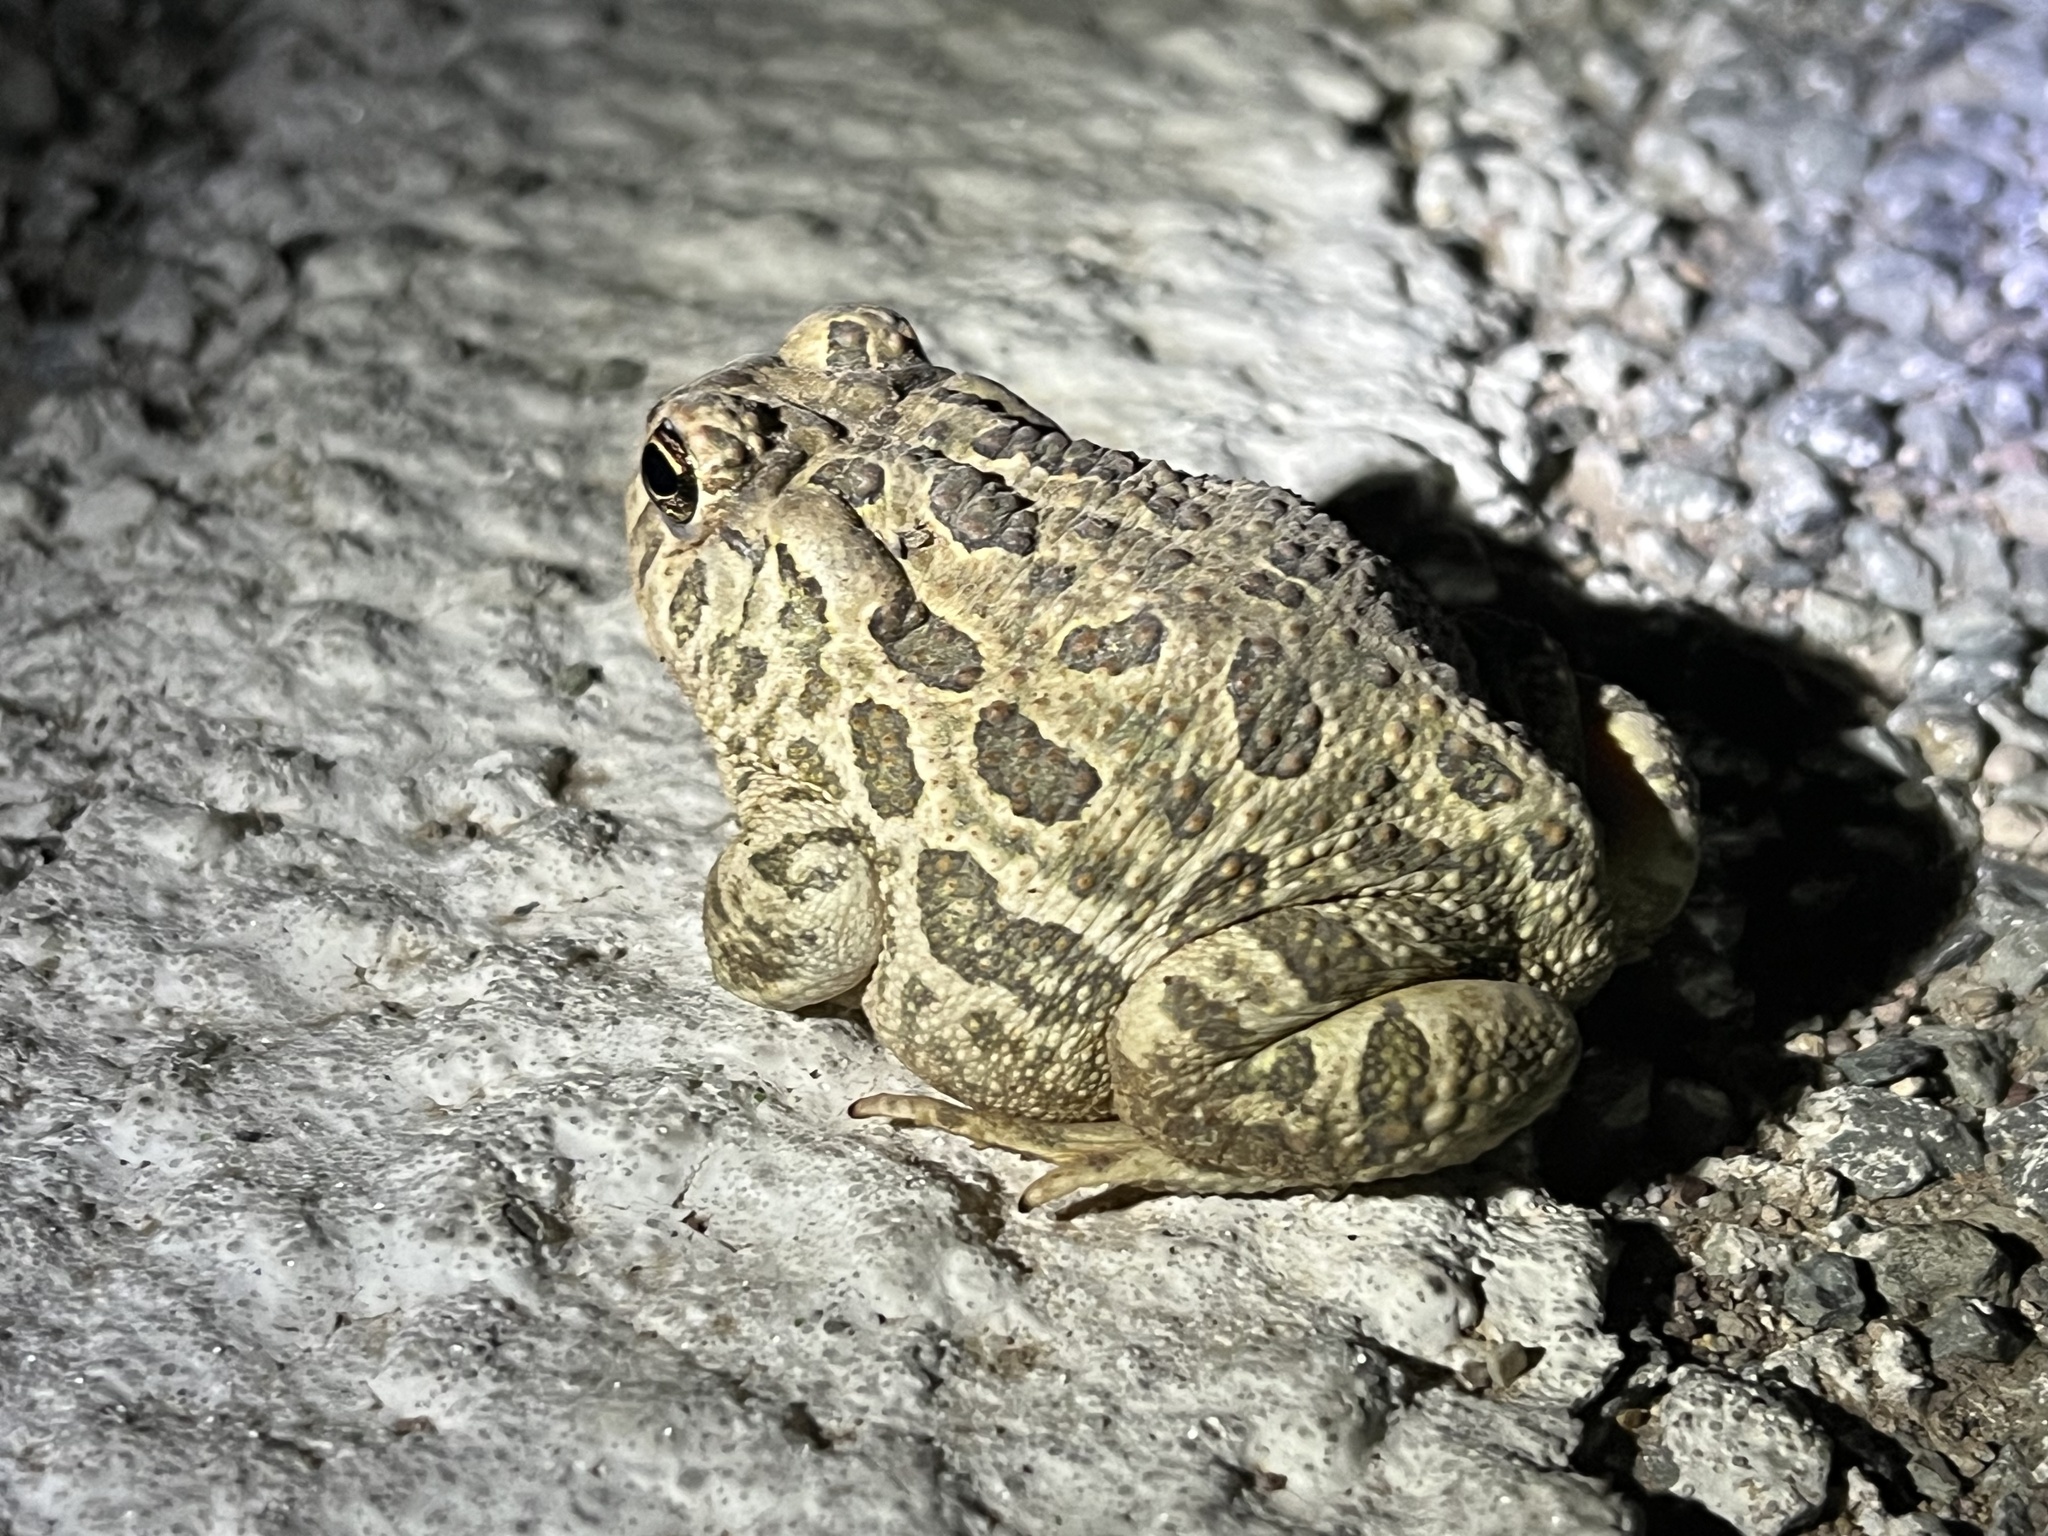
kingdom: Animalia
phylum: Chordata
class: Amphibia
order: Anura
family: Bufonidae
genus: Anaxyrus
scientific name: Anaxyrus cognatus
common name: Great plains toad
